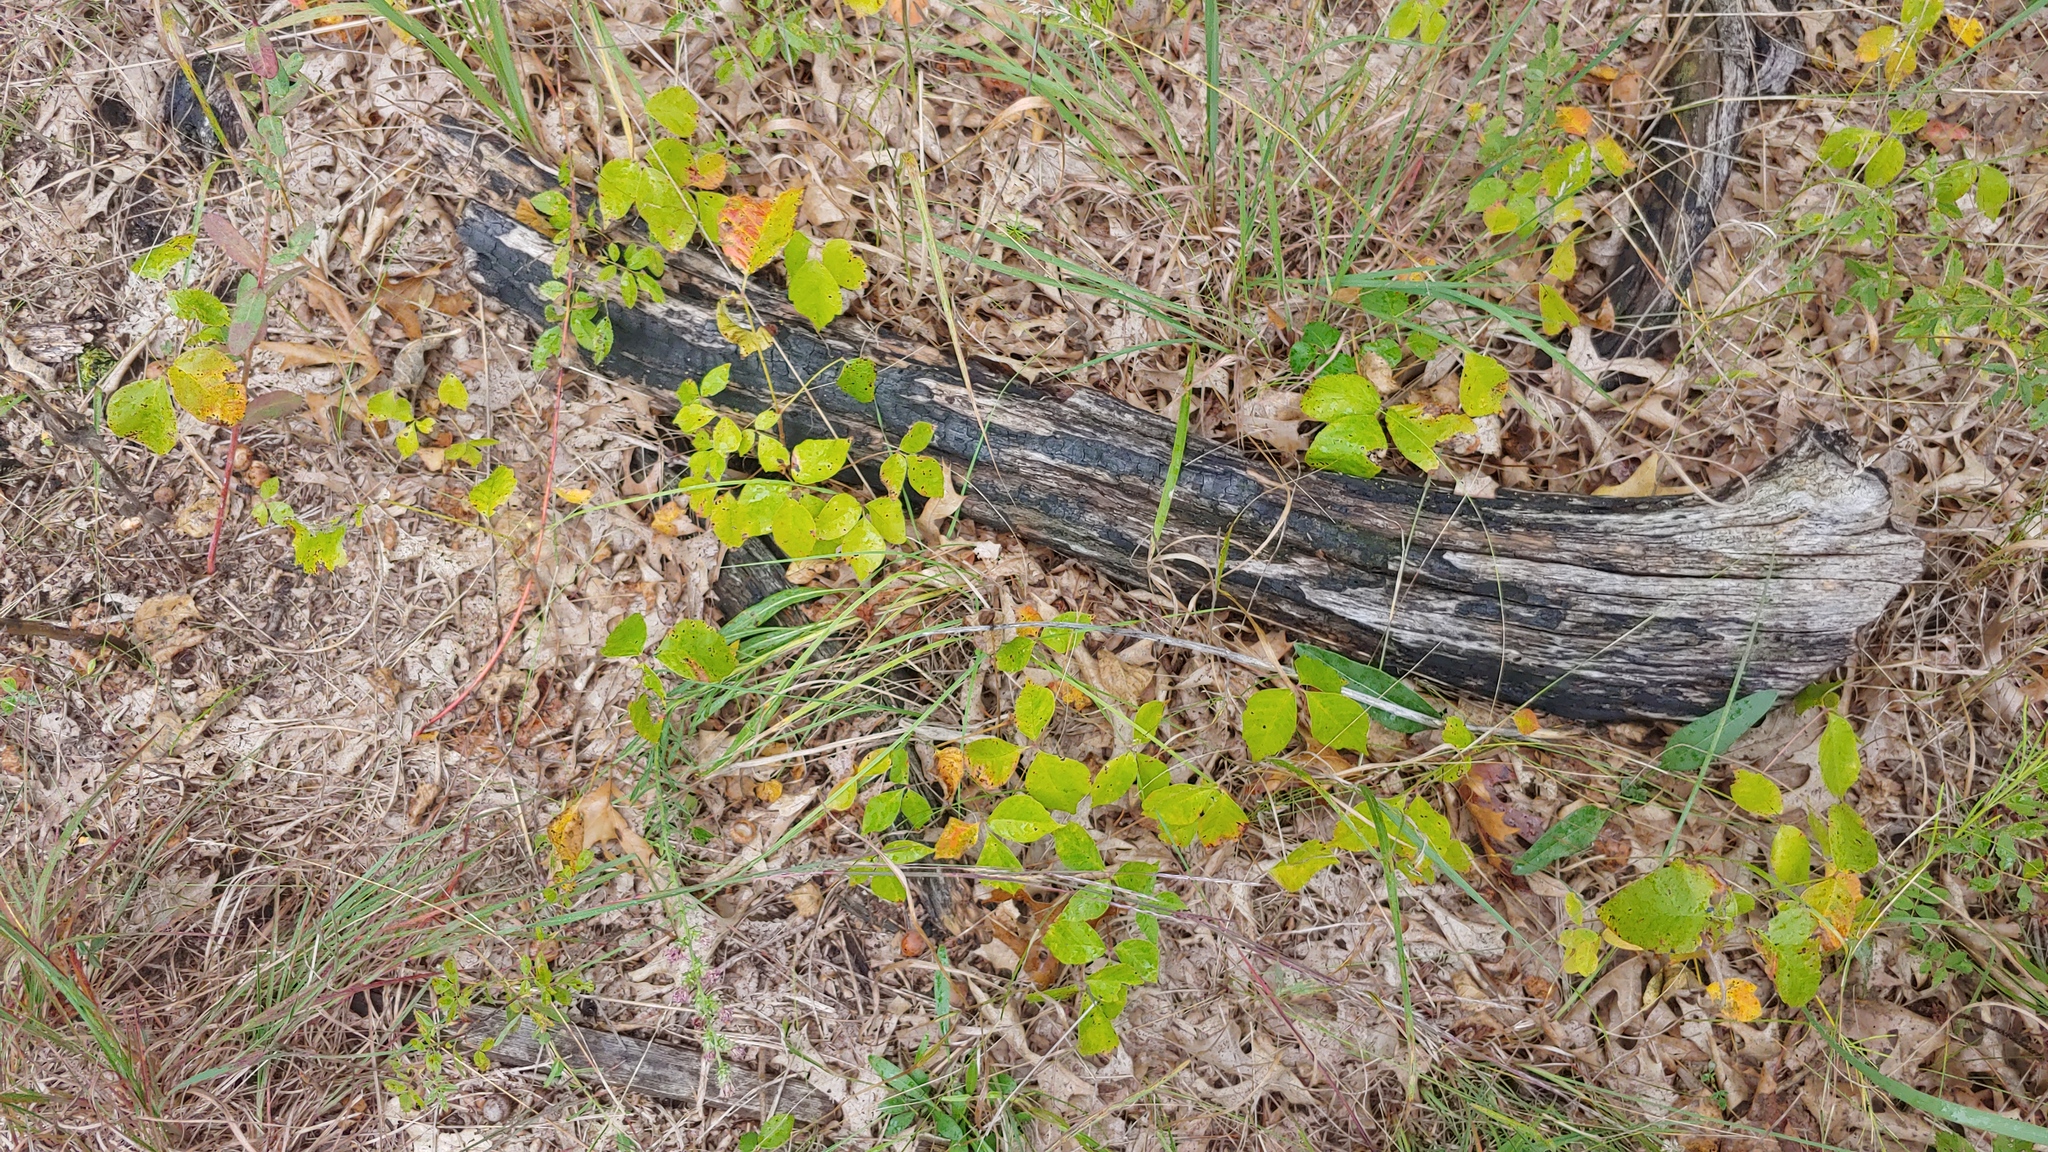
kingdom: Plantae
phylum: Tracheophyta
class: Magnoliopsida
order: Sapindales
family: Anacardiaceae
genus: Toxicodendron
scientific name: Toxicodendron rydbergii
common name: Rydberg's poison-ivy
